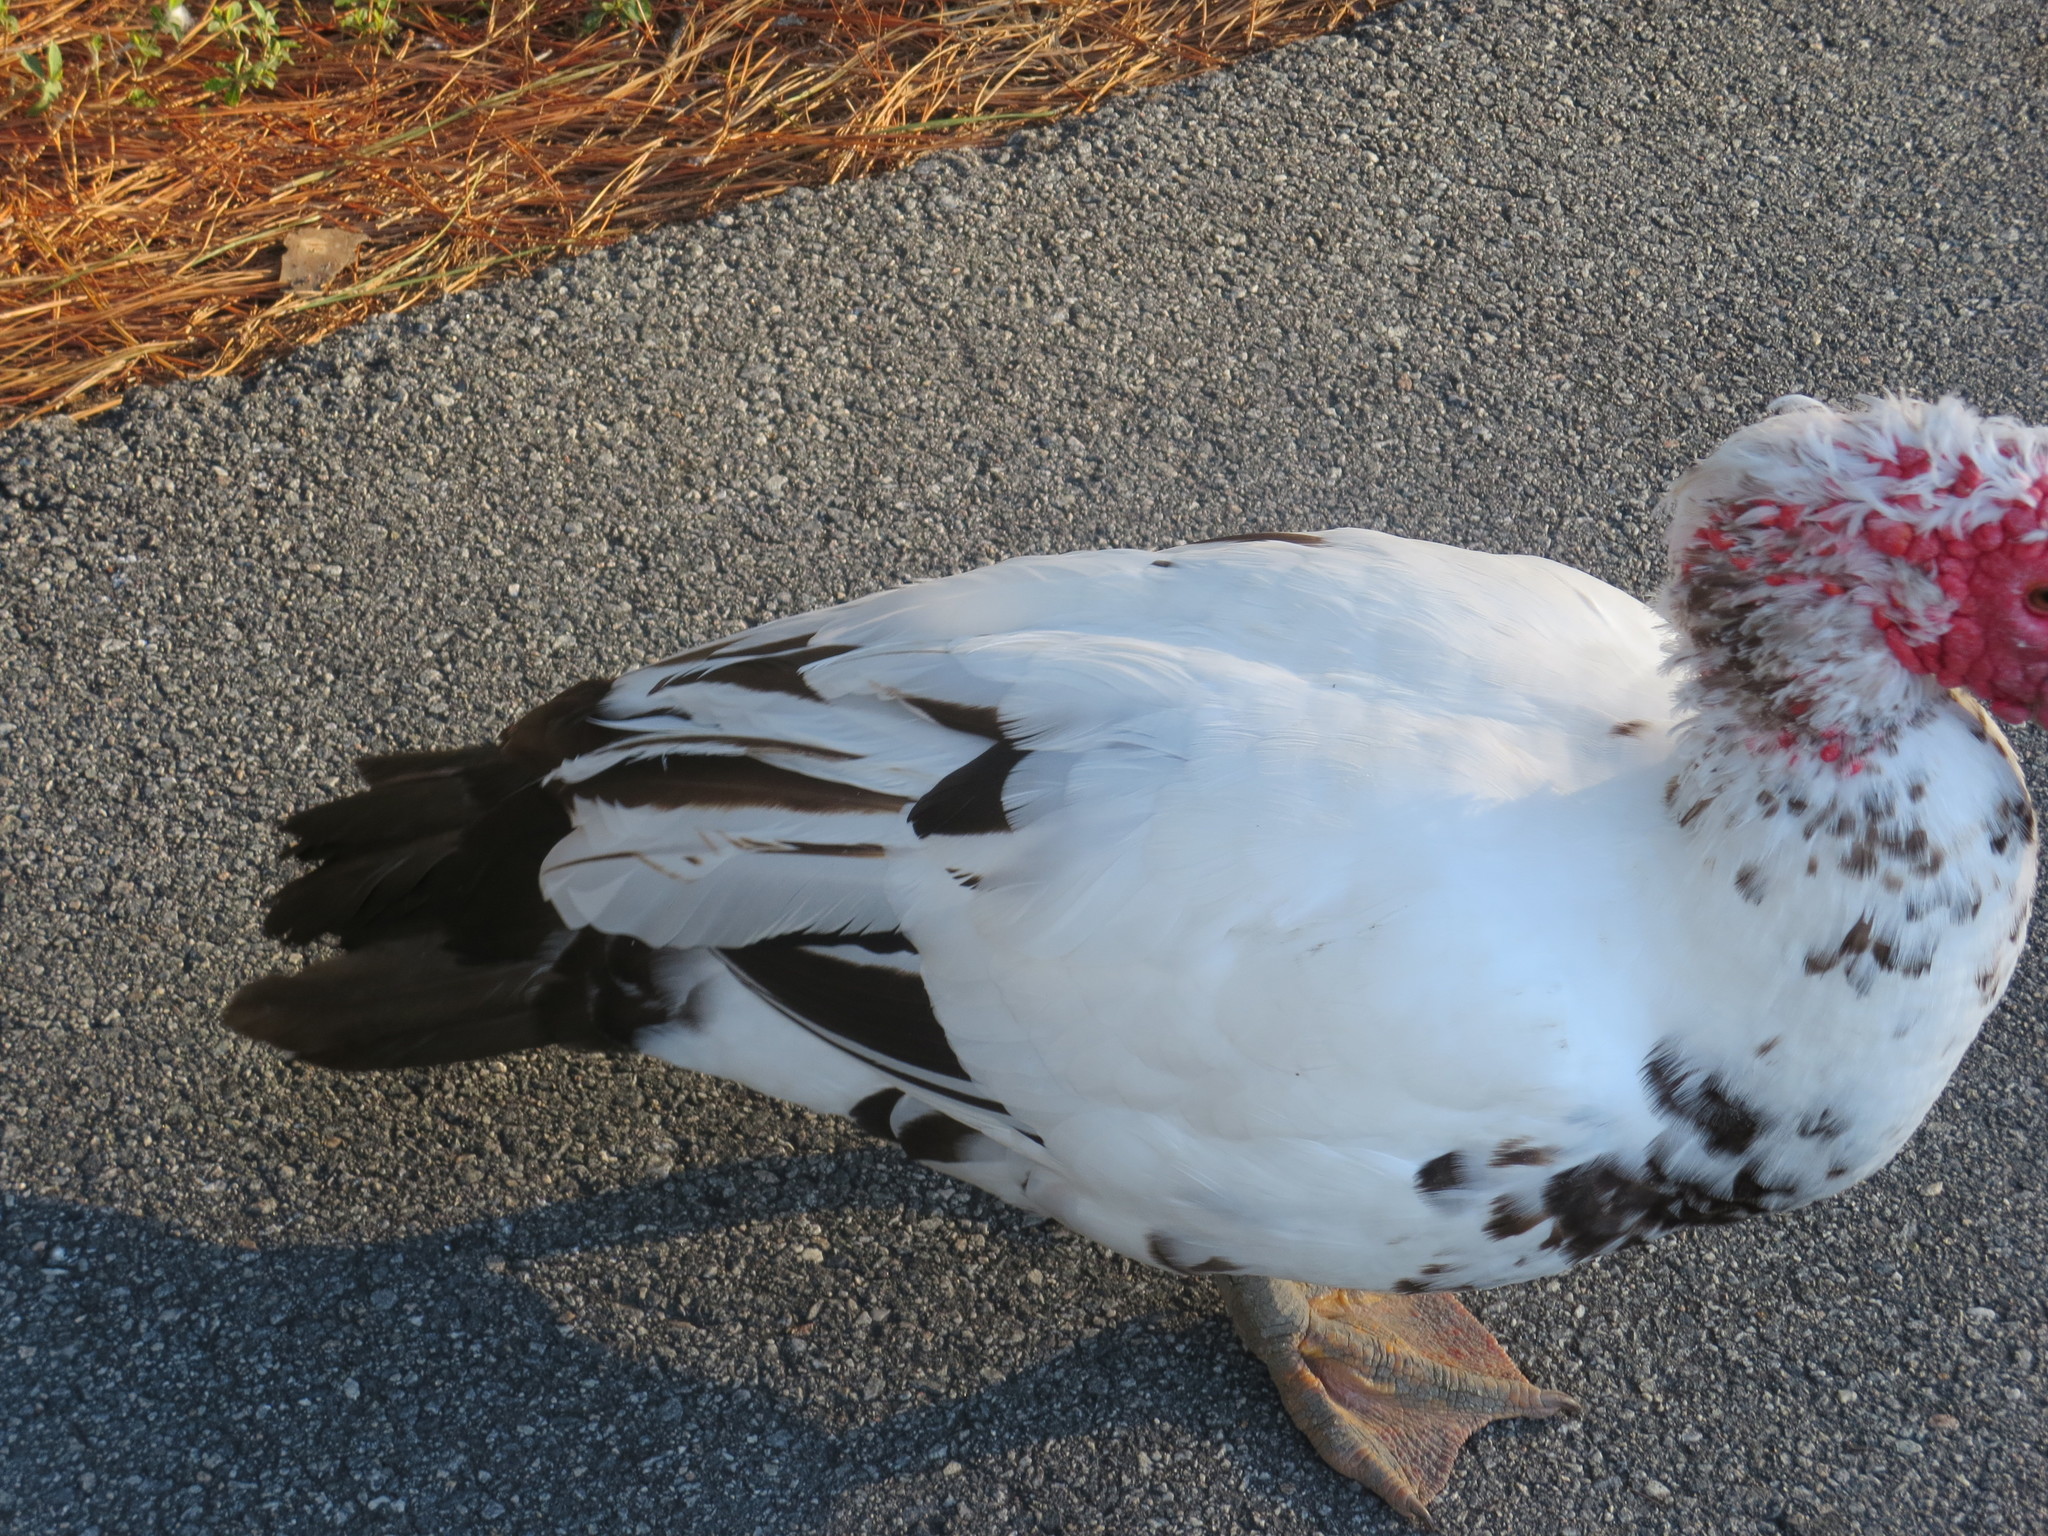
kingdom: Animalia
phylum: Chordata
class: Aves
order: Anseriformes
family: Anatidae
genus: Cairina
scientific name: Cairina moschata
